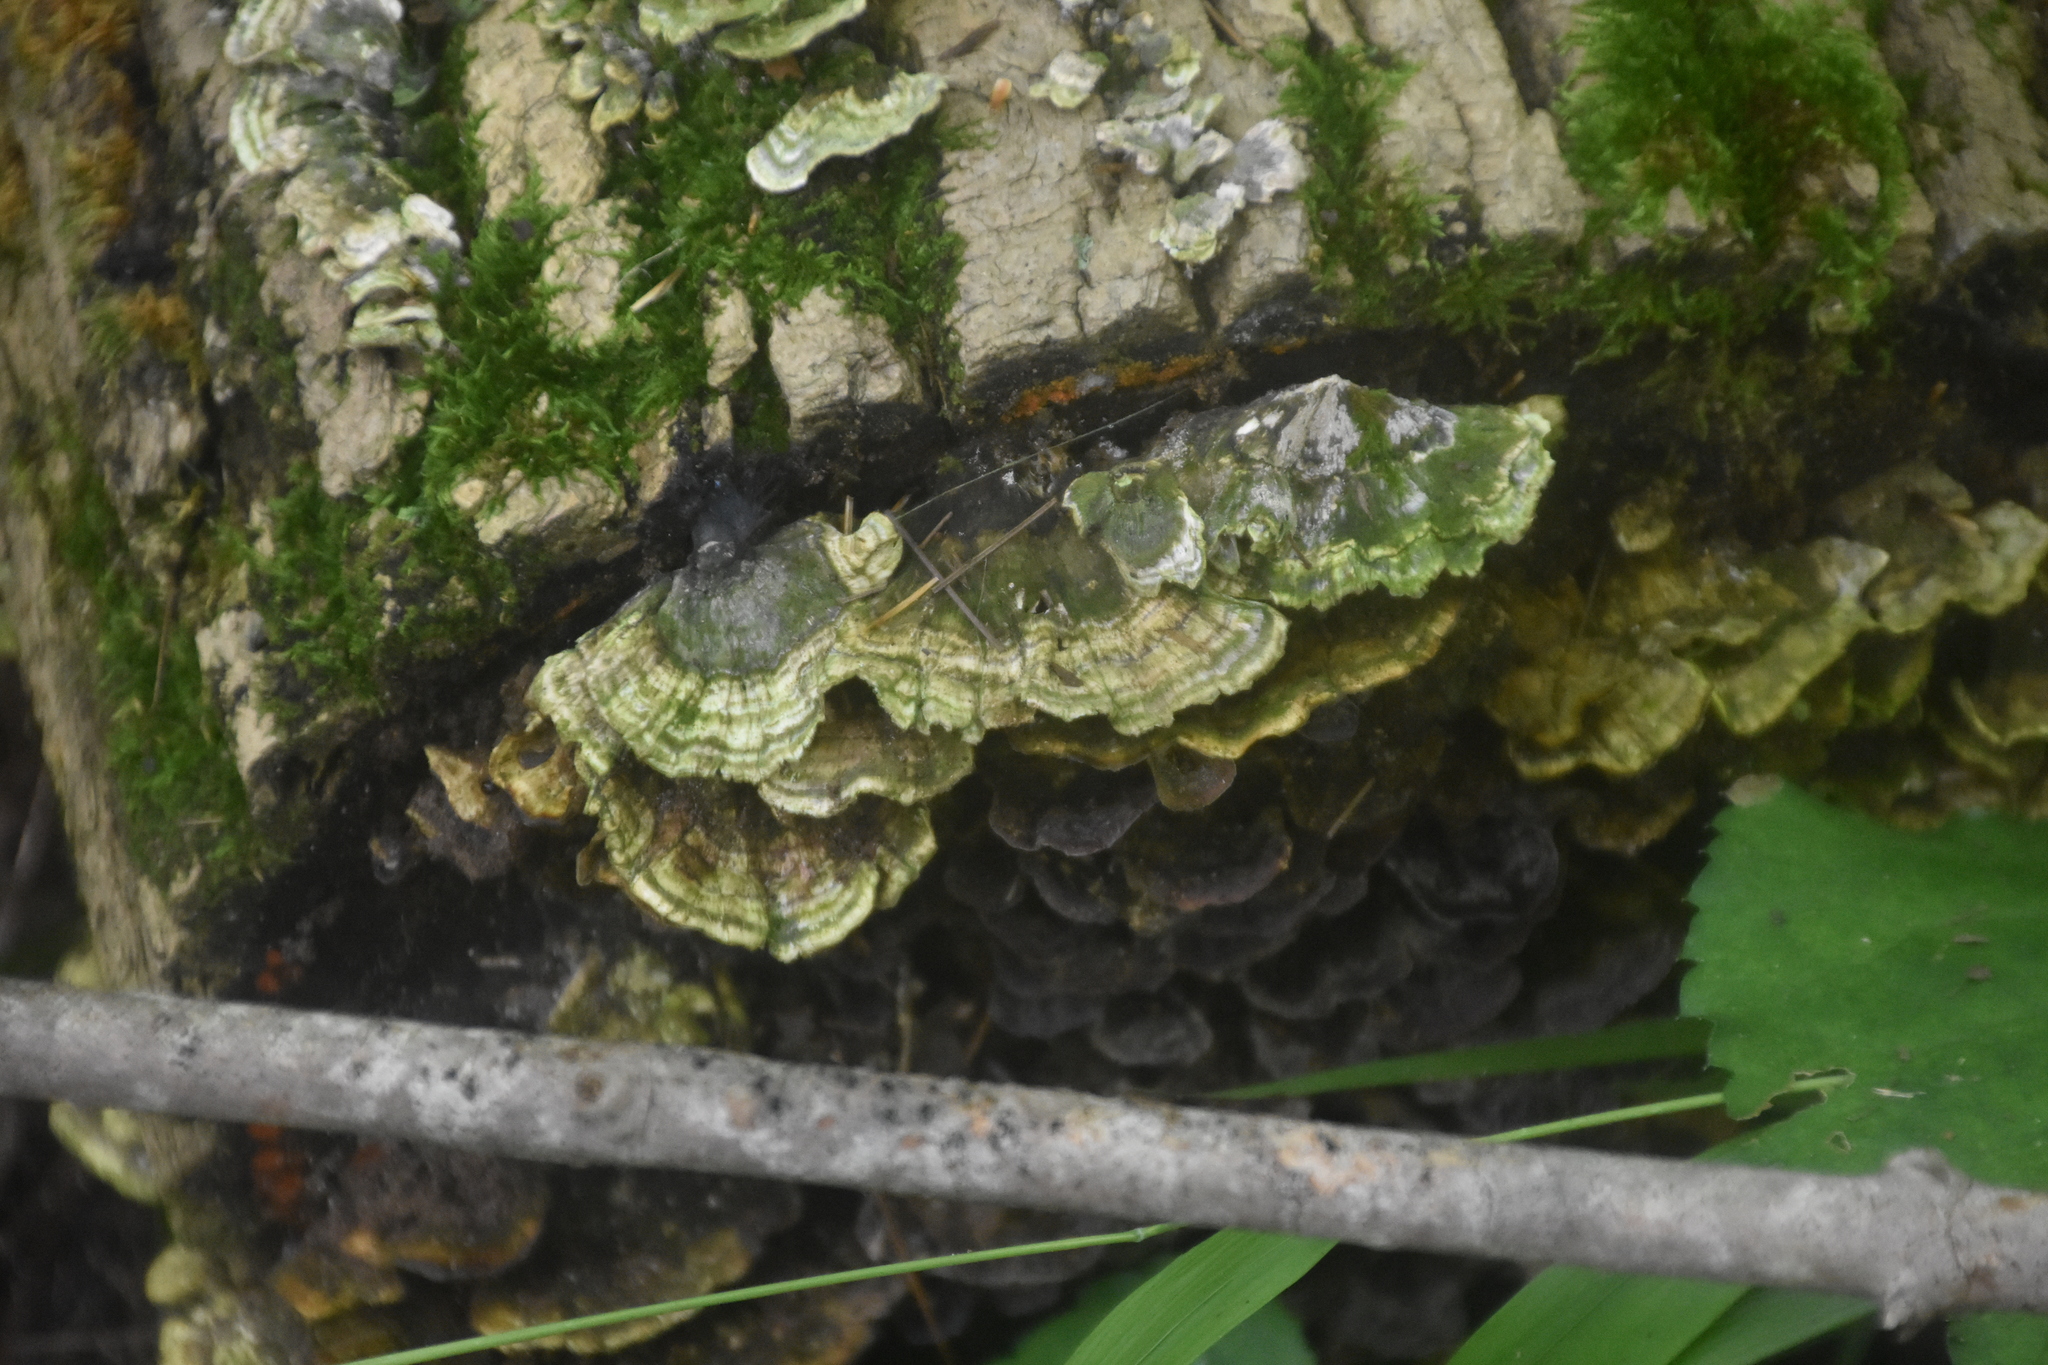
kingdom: Fungi
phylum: Basidiomycota
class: Agaricomycetes
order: Polyporales
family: Polyporaceae
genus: Trametes
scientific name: Trametes versicolor
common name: Turkeytail
